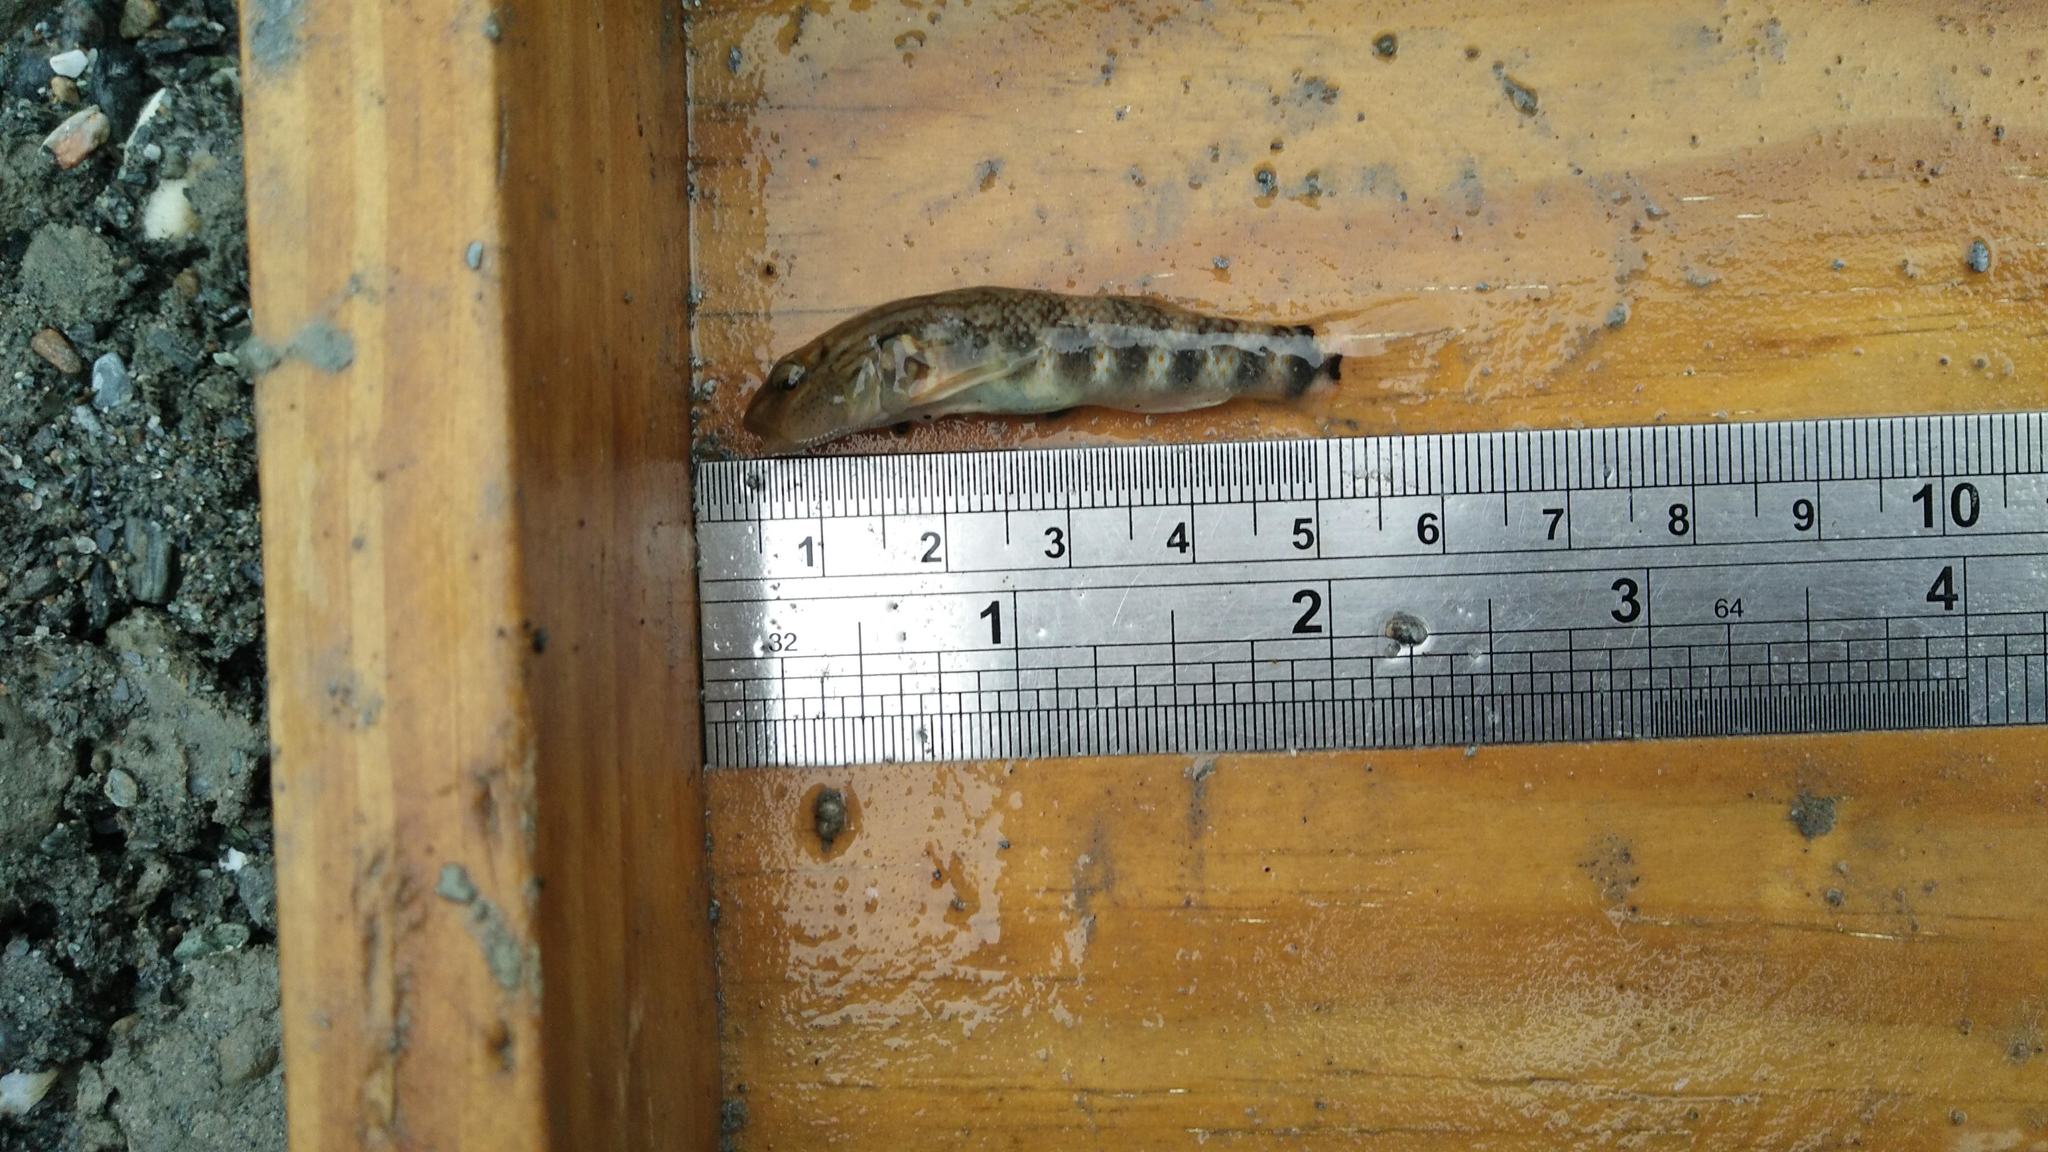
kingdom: Animalia
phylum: Chordata
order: Perciformes
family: Gobiidae
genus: Rhinogobius
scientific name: Rhinogobius gigas
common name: Amur goby
